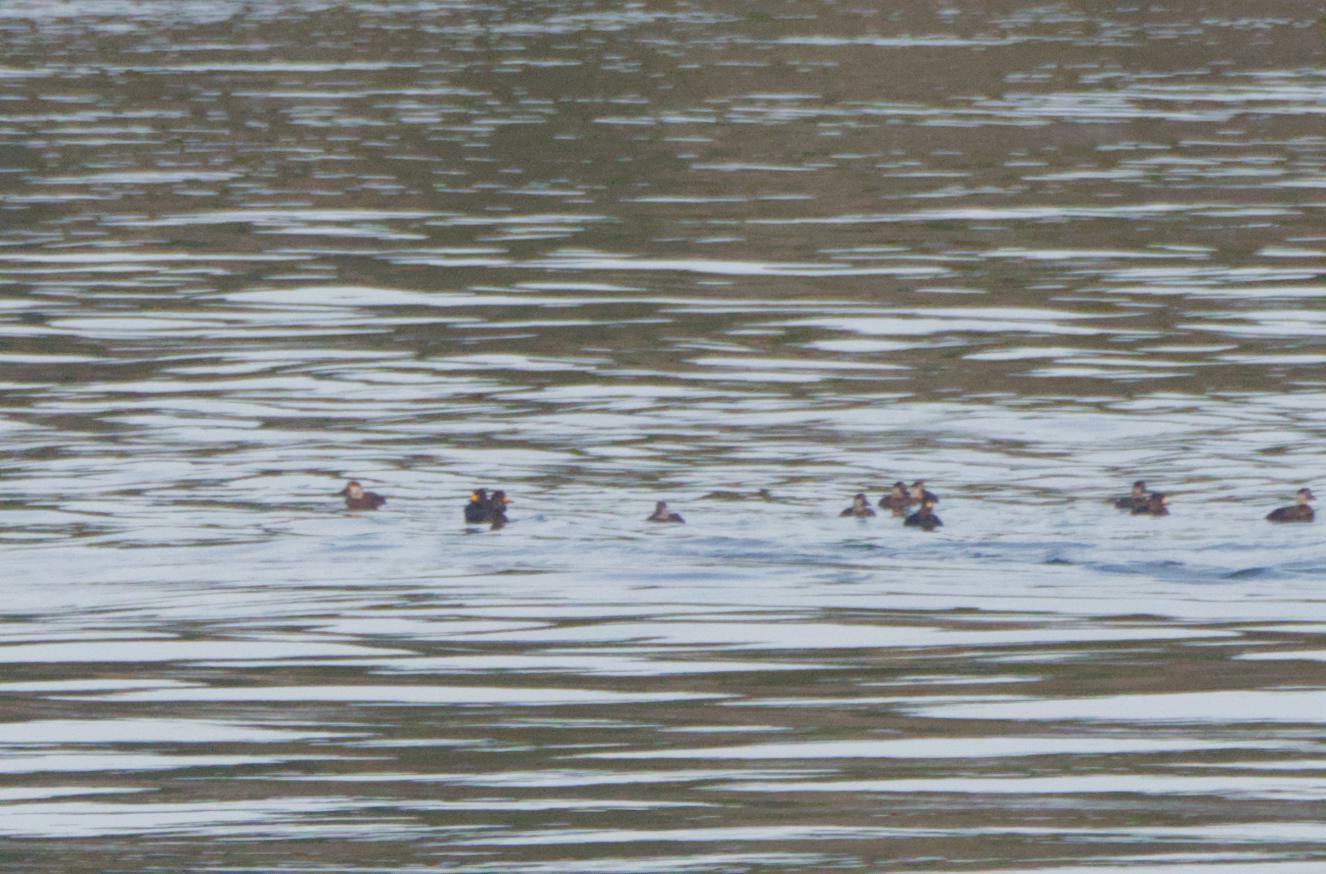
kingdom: Animalia
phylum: Chordata
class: Aves
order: Anseriformes
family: Anatidae
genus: Melanitta
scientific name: Melanitta americana
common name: Black scoter
